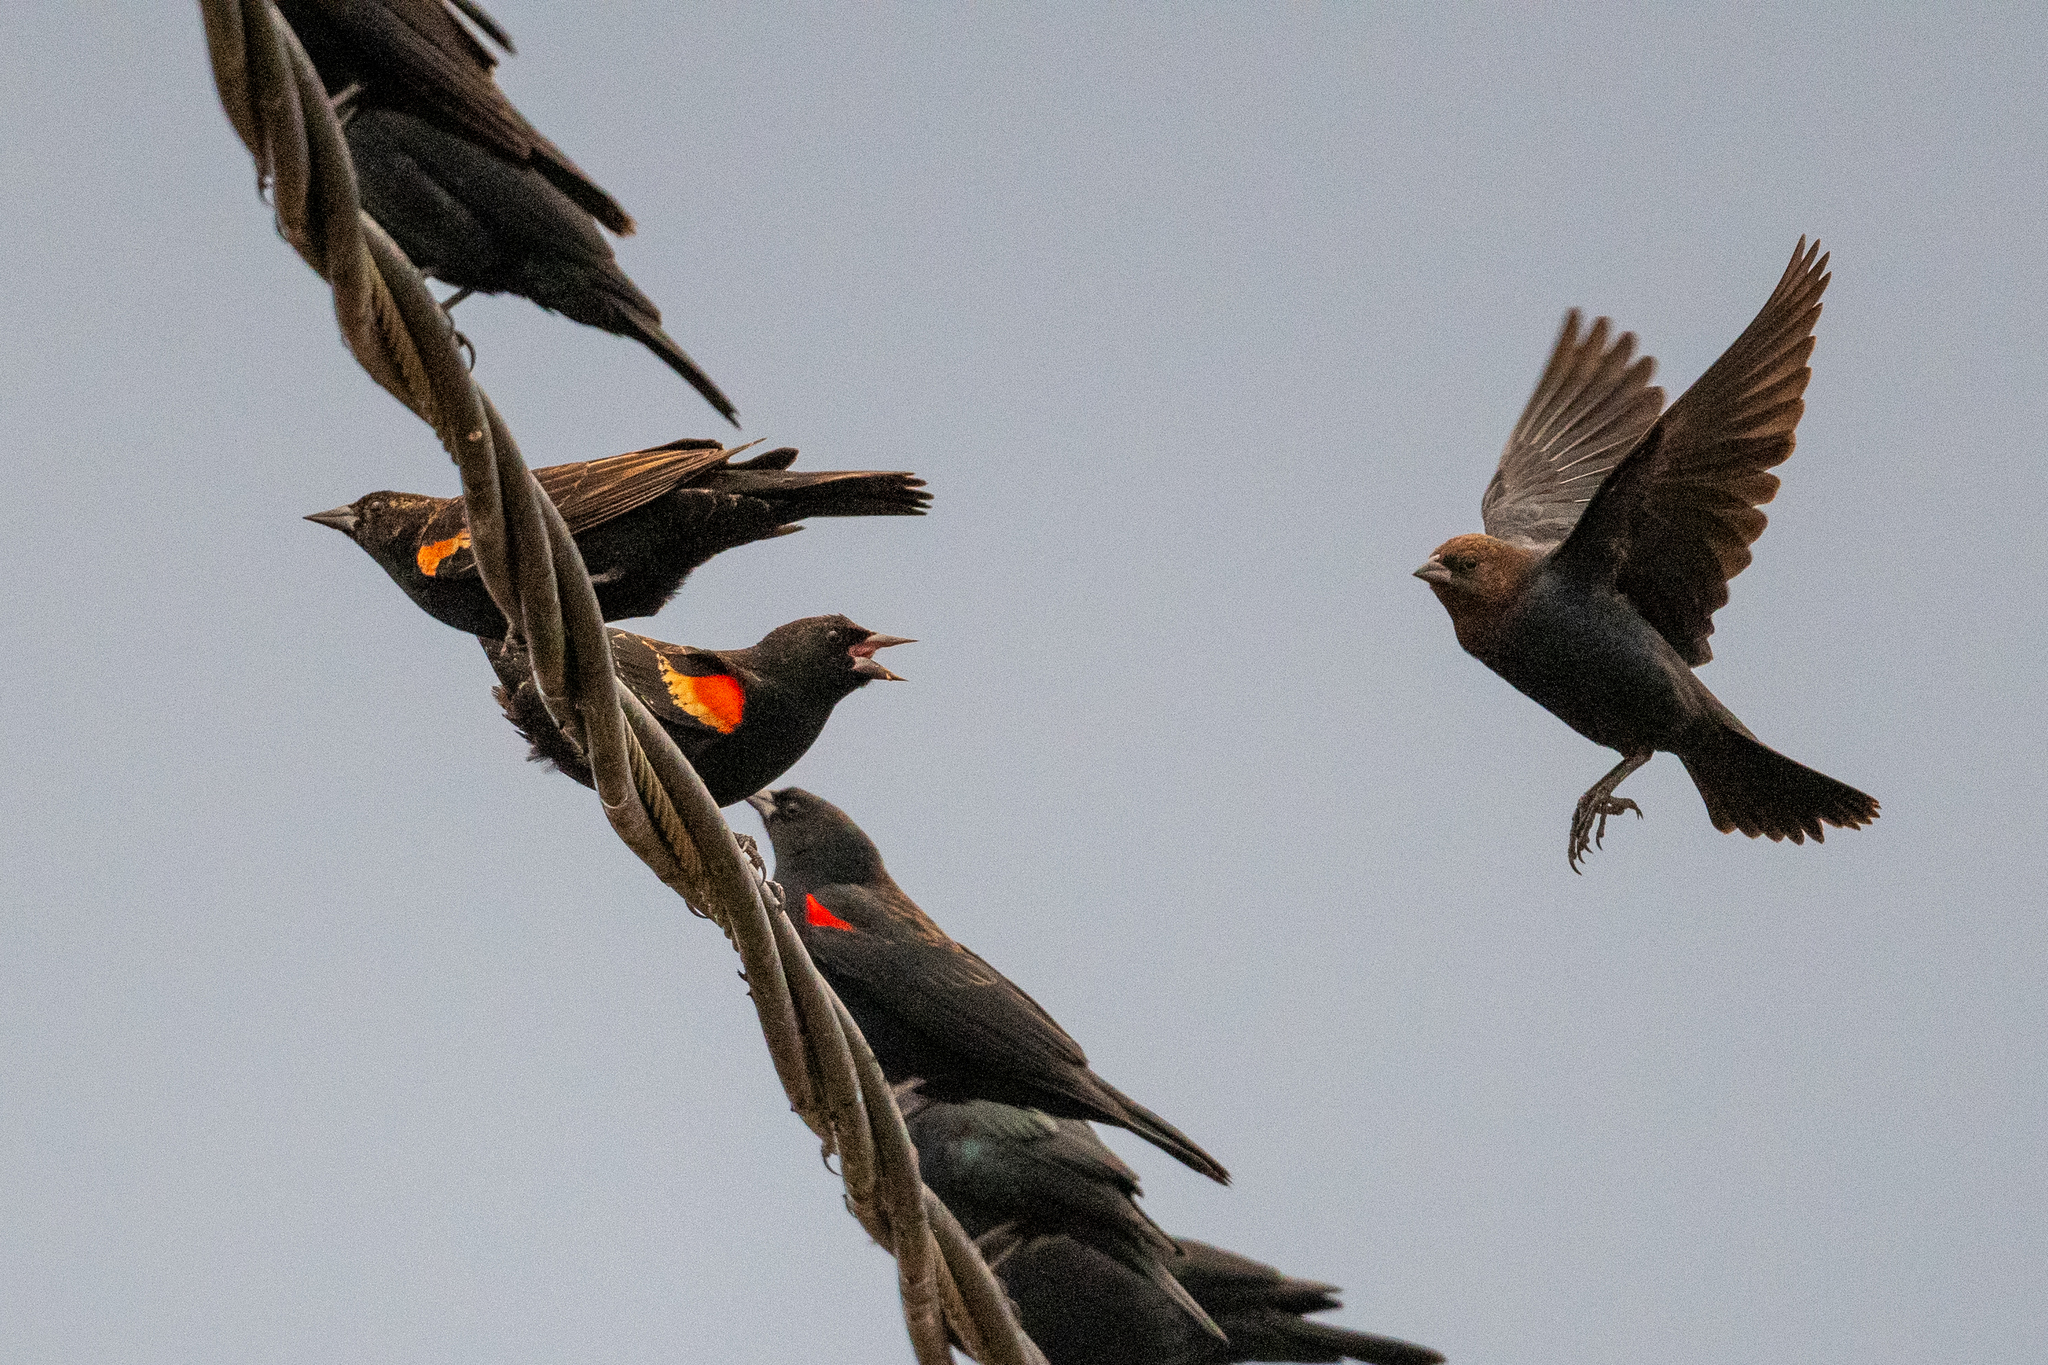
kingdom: Animalia
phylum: Chordata
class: Aves
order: Passeriformes
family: Icteridae
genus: Agelaius
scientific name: Agelaius phoeniceus
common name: Red-winged blackbird
